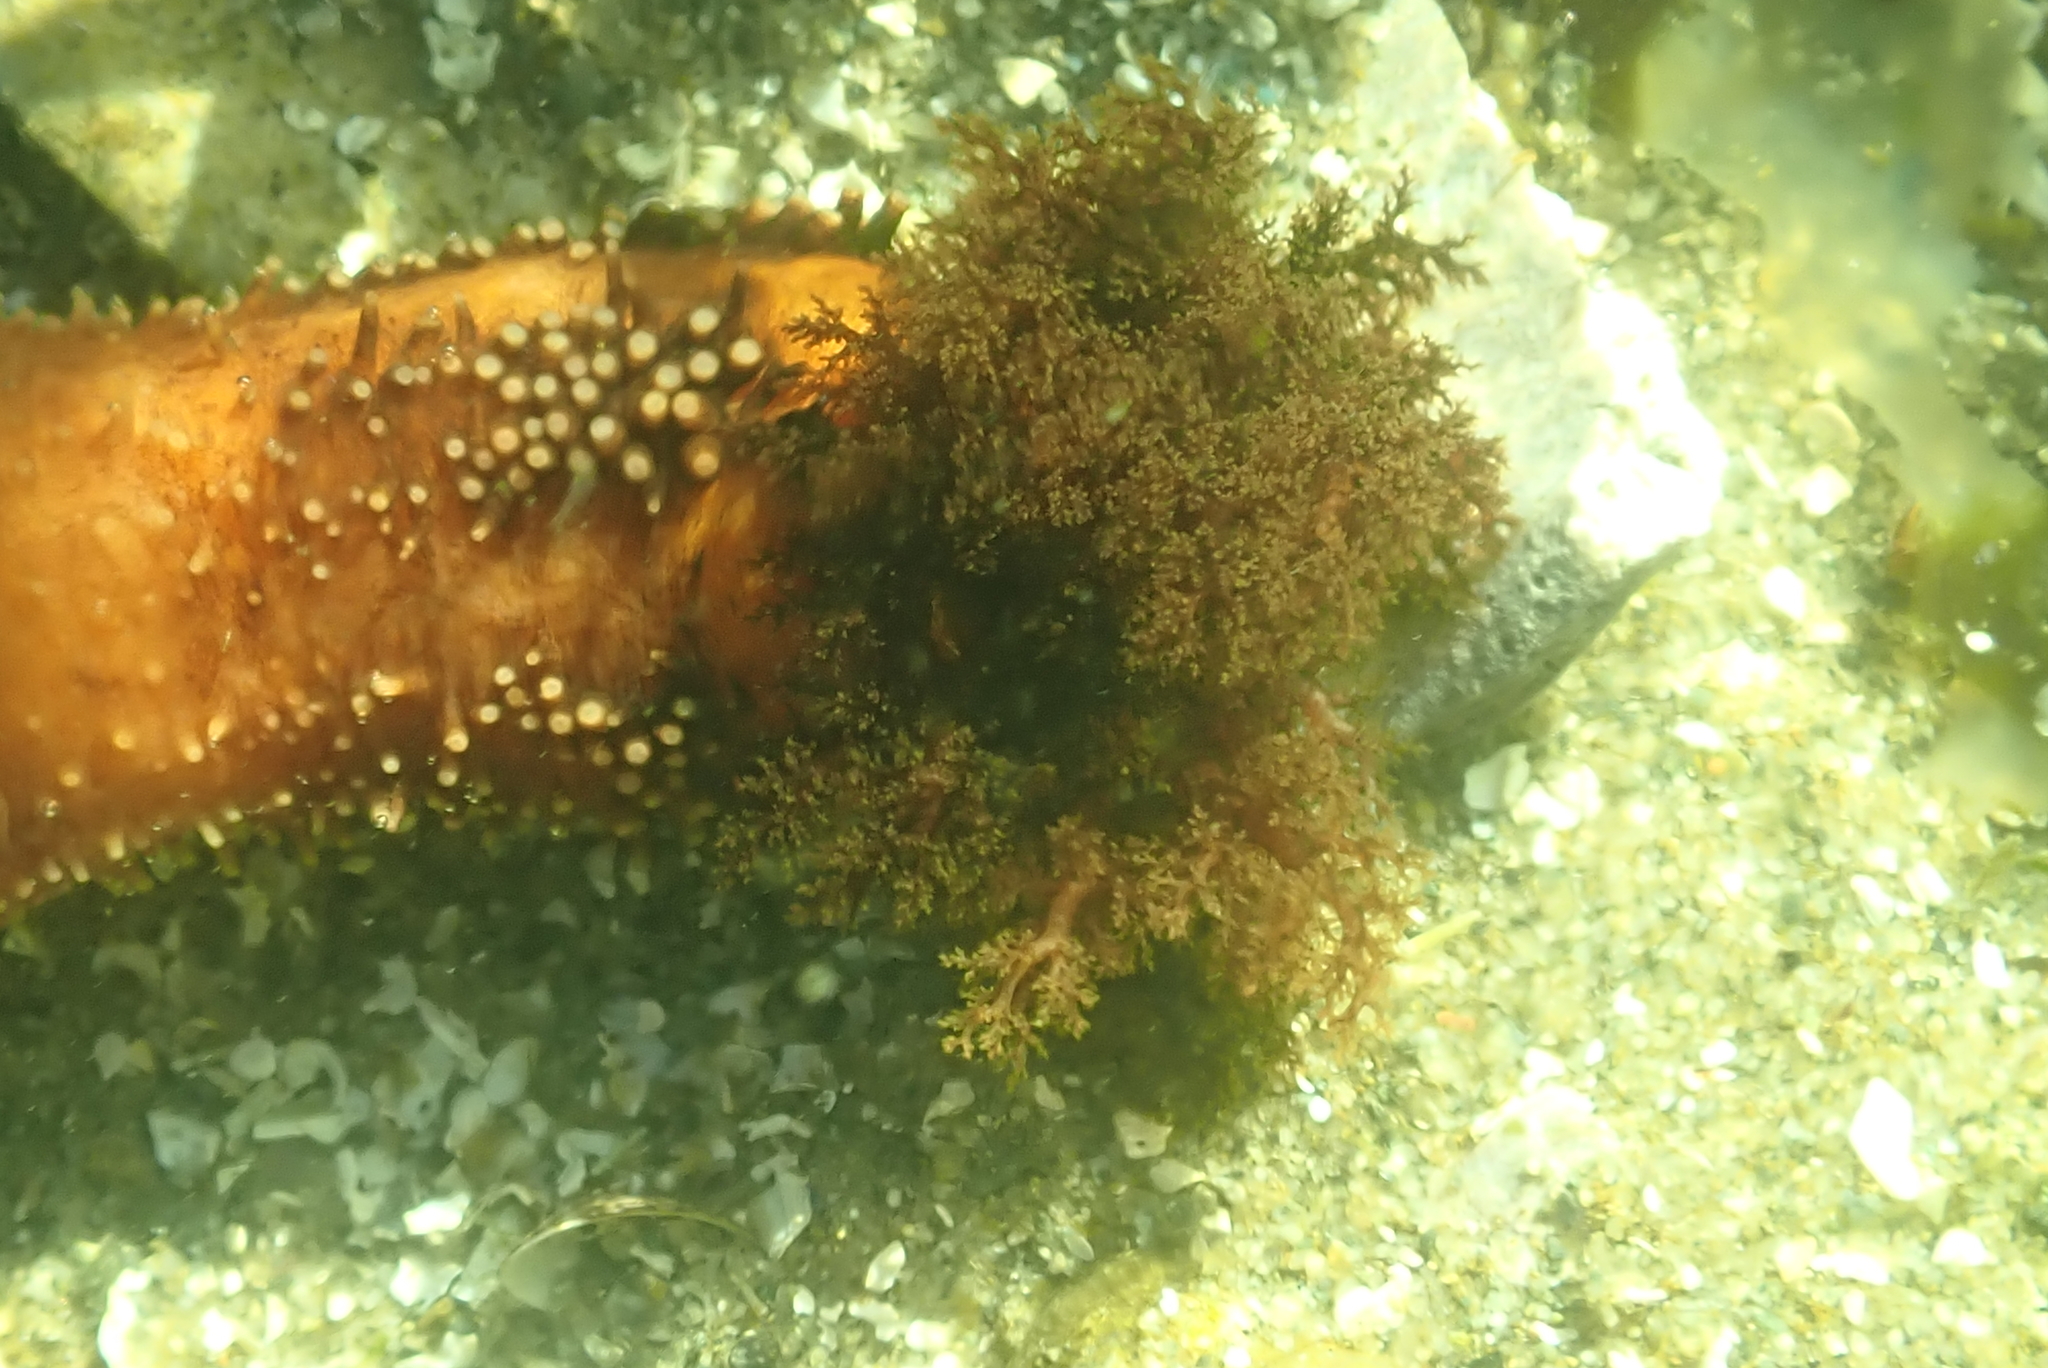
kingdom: Animalia
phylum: Echinodermata
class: Holothuroidea
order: Dendrochirotida
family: Cucumariidae
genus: Cucumaria
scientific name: Cucumaria miniata
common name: Orange sea cucumber
